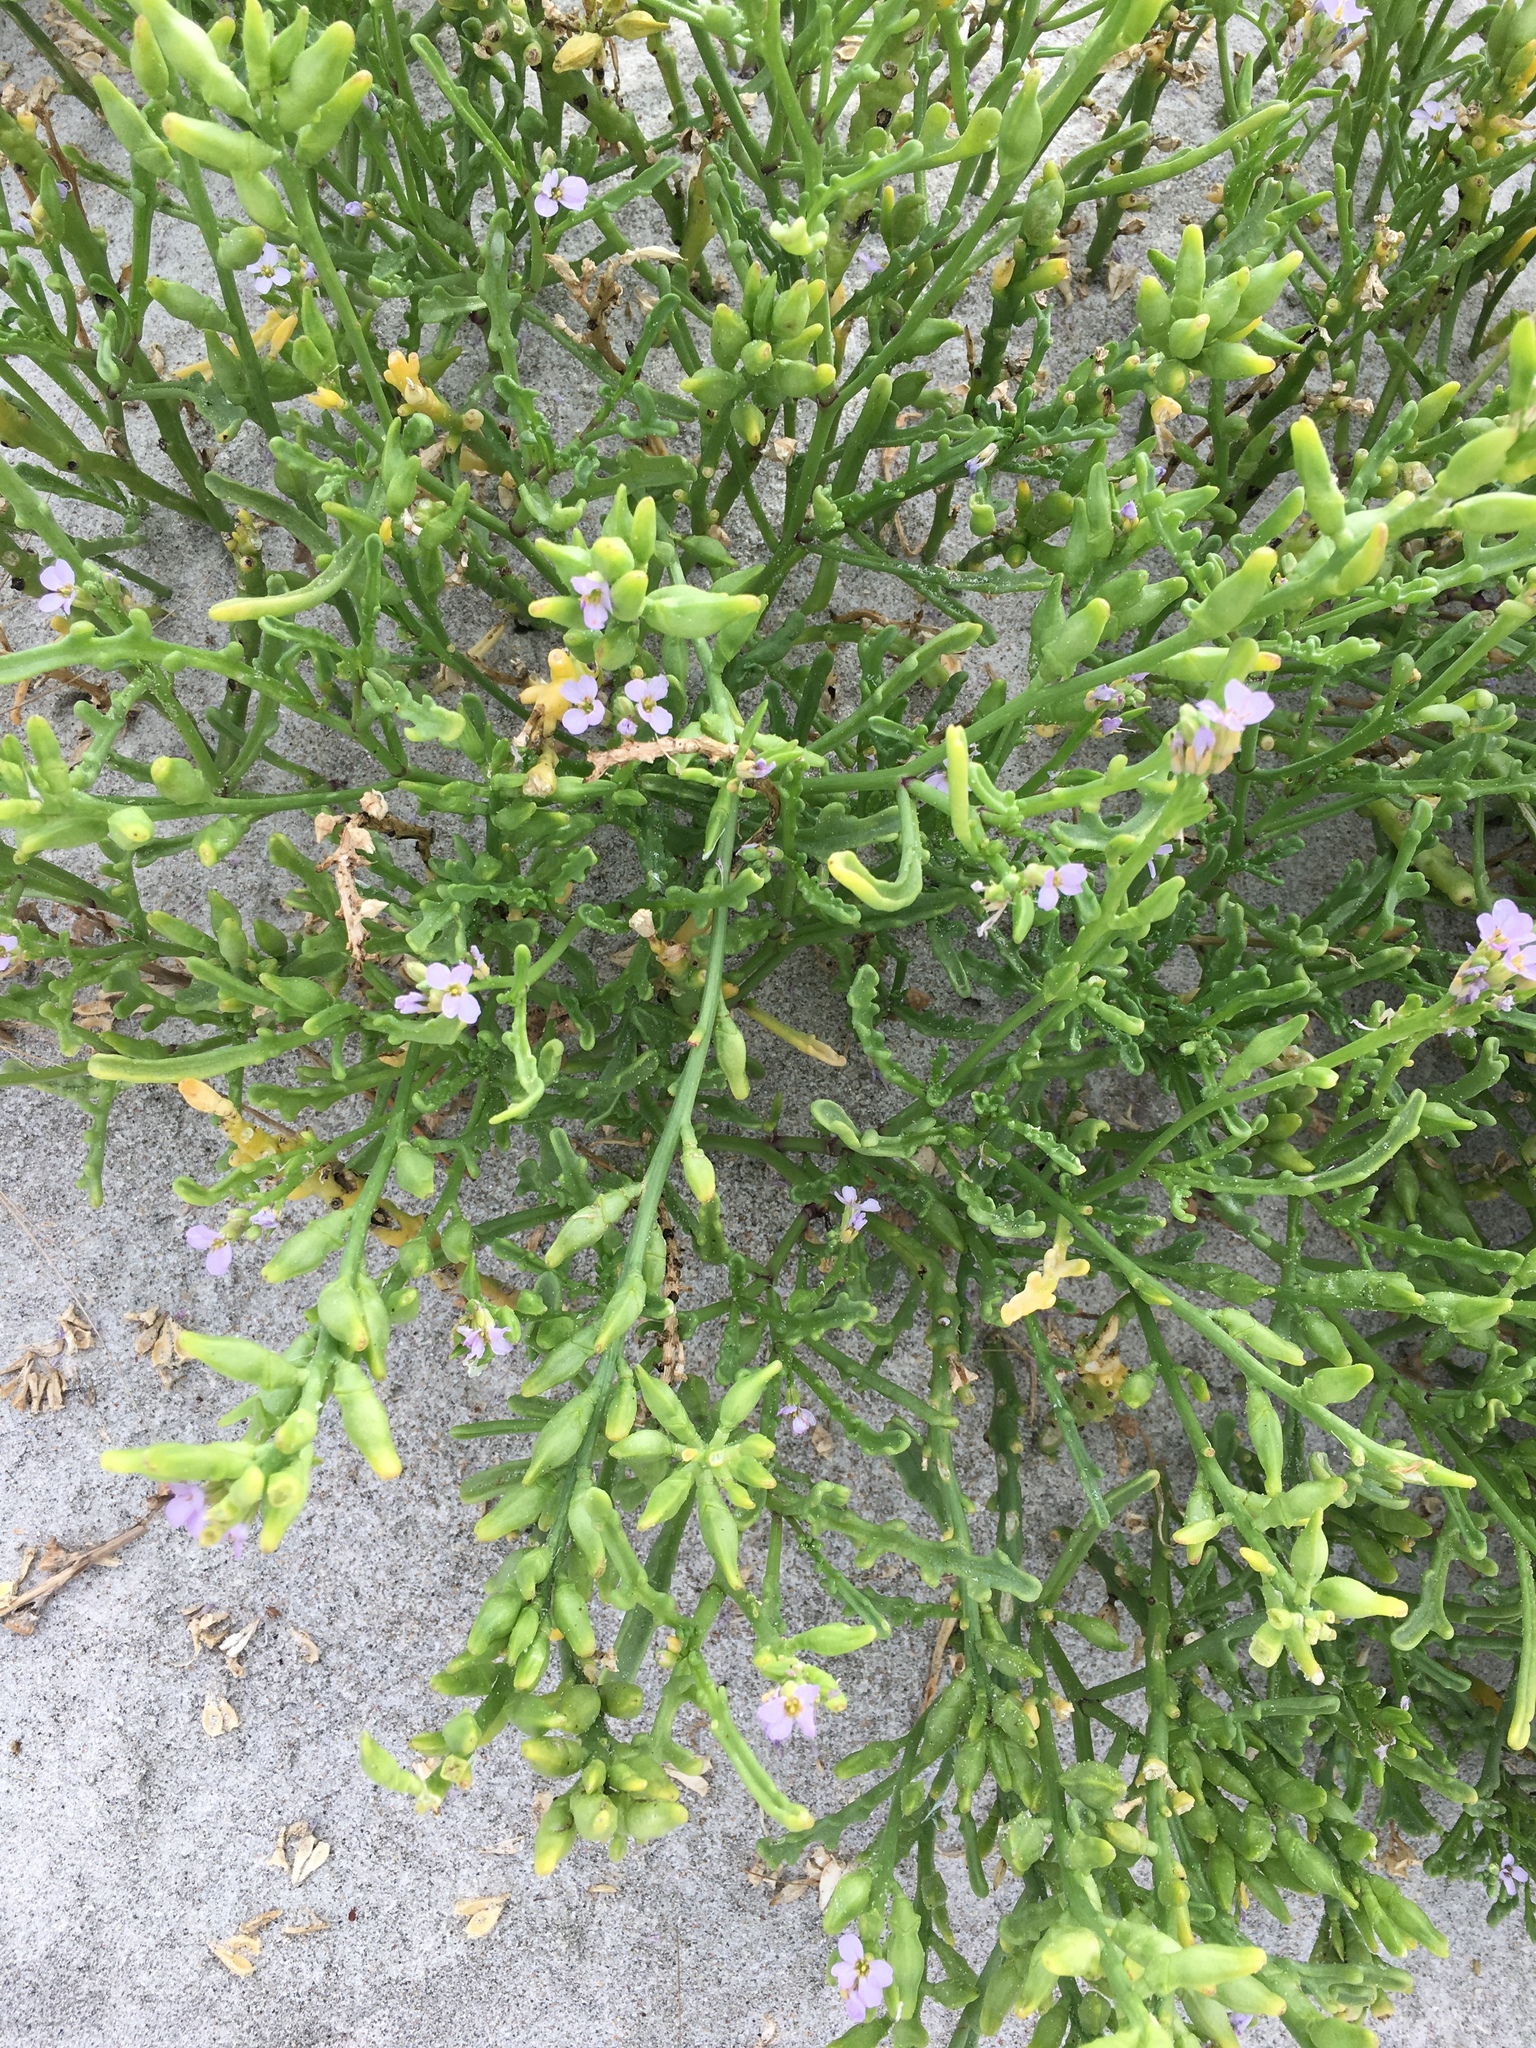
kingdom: Plantae
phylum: Tracheophyta
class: Magnoliopsida
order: Brassicales
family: Brassicaceae
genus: Cakile
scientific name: Cakile maritima
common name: Sea rocket
